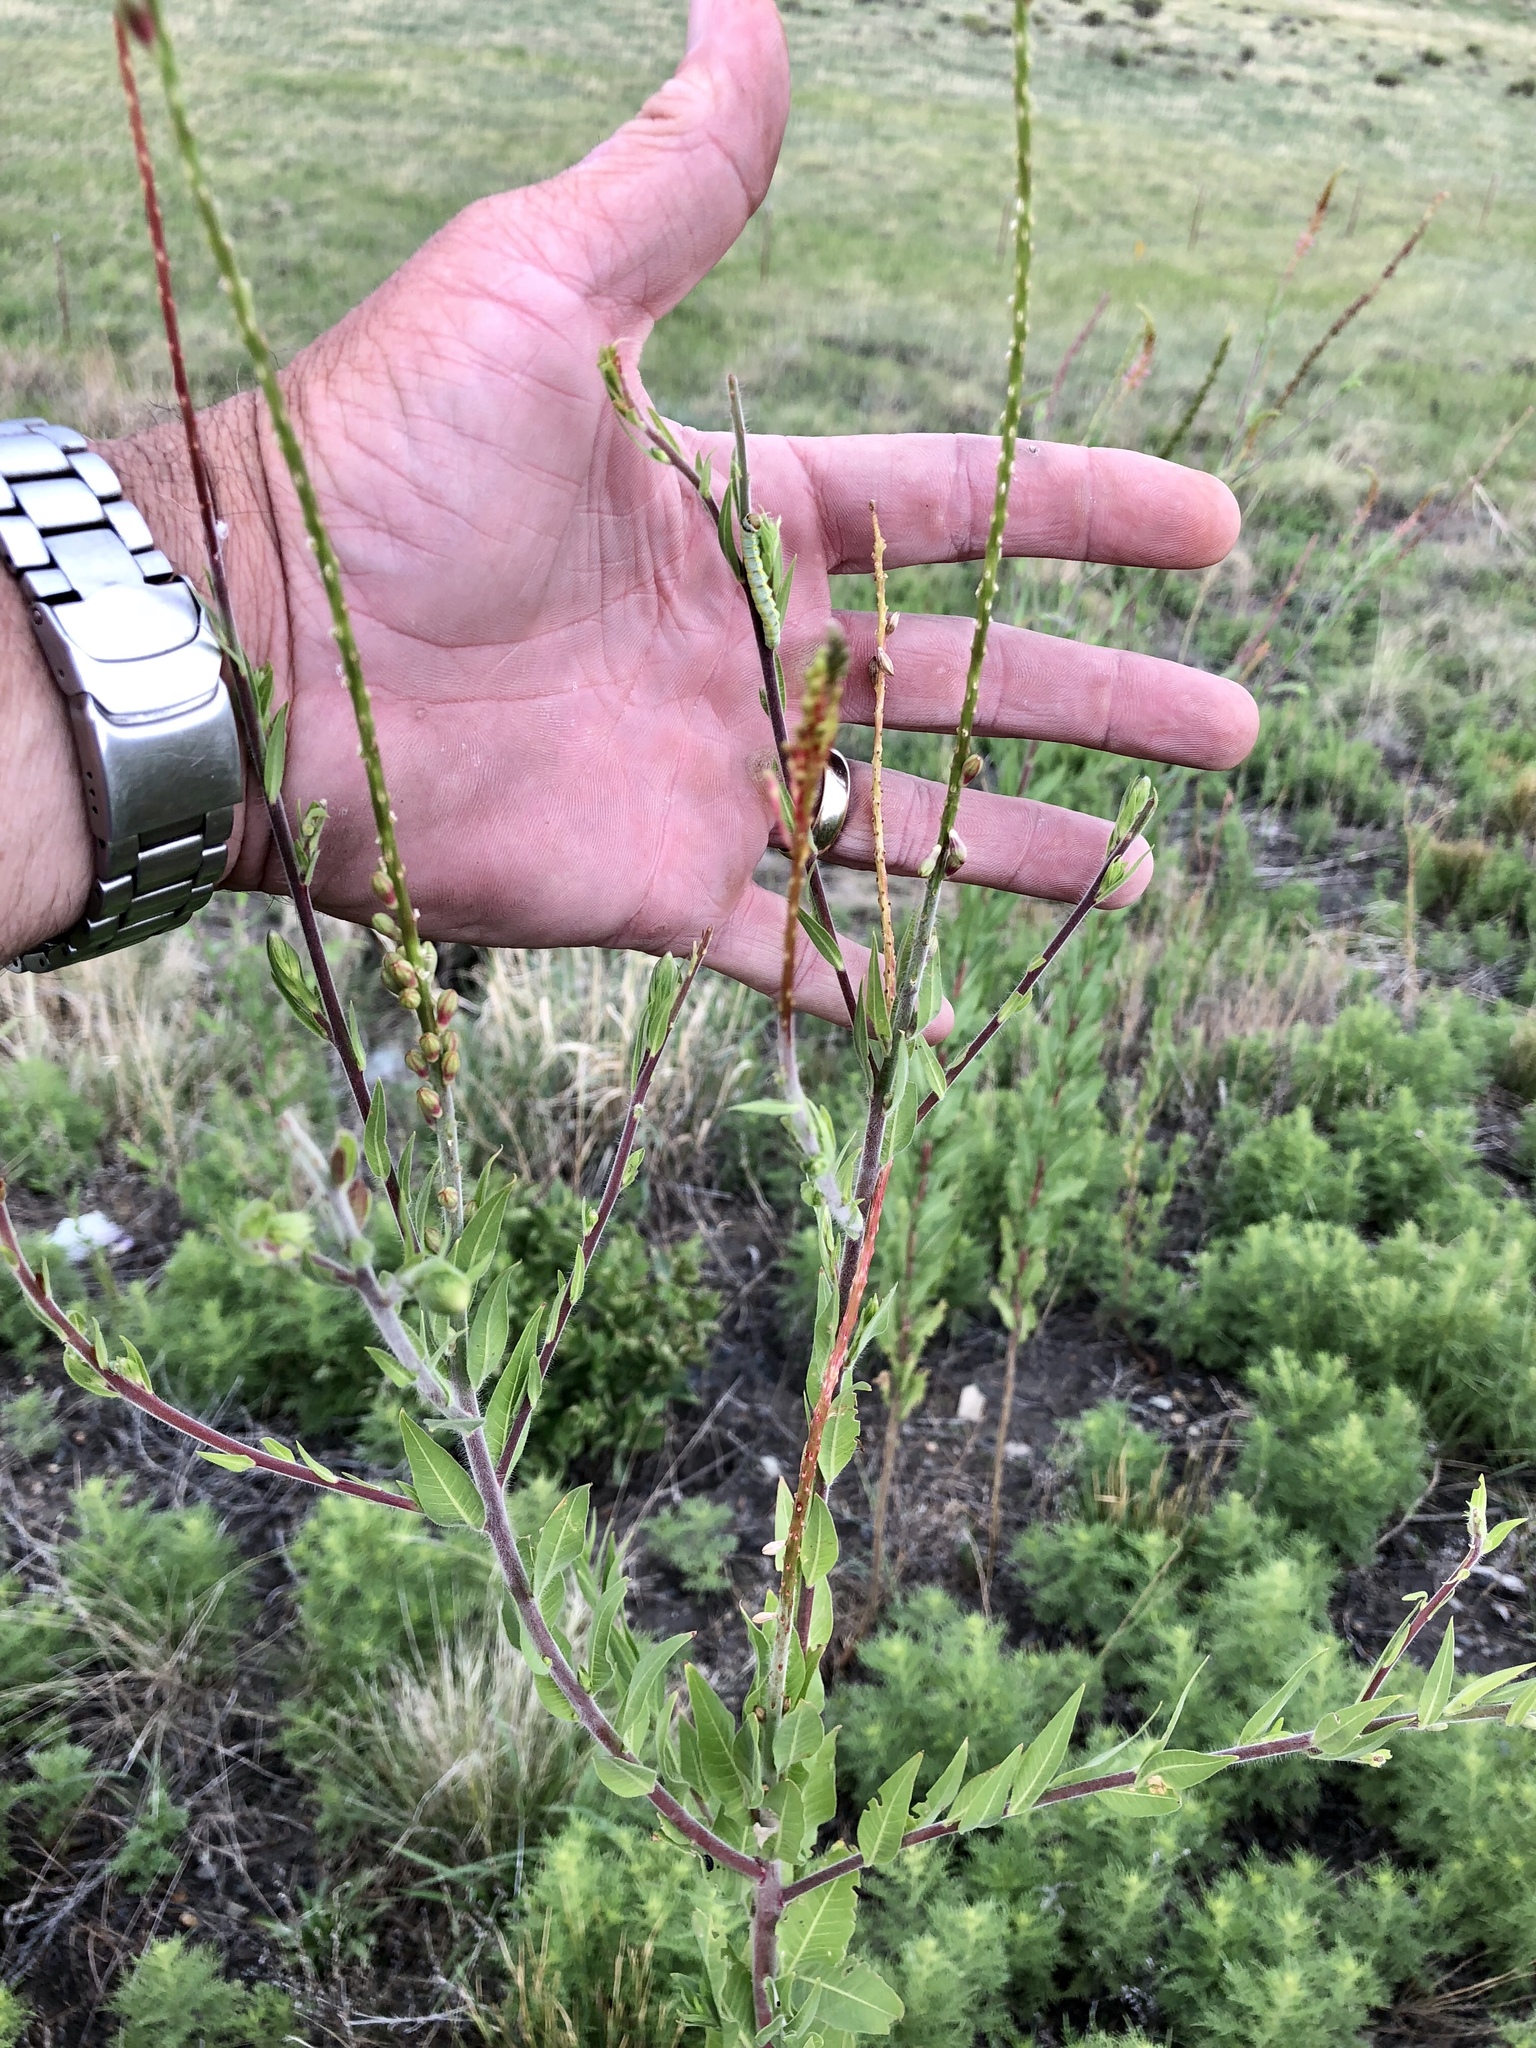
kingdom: Plantae
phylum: Tracheophyta
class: Magnoliopsida
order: Myrtales
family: Onagraceae
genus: Oenothera
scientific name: Oenothera curtiflora
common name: Velvetweed
